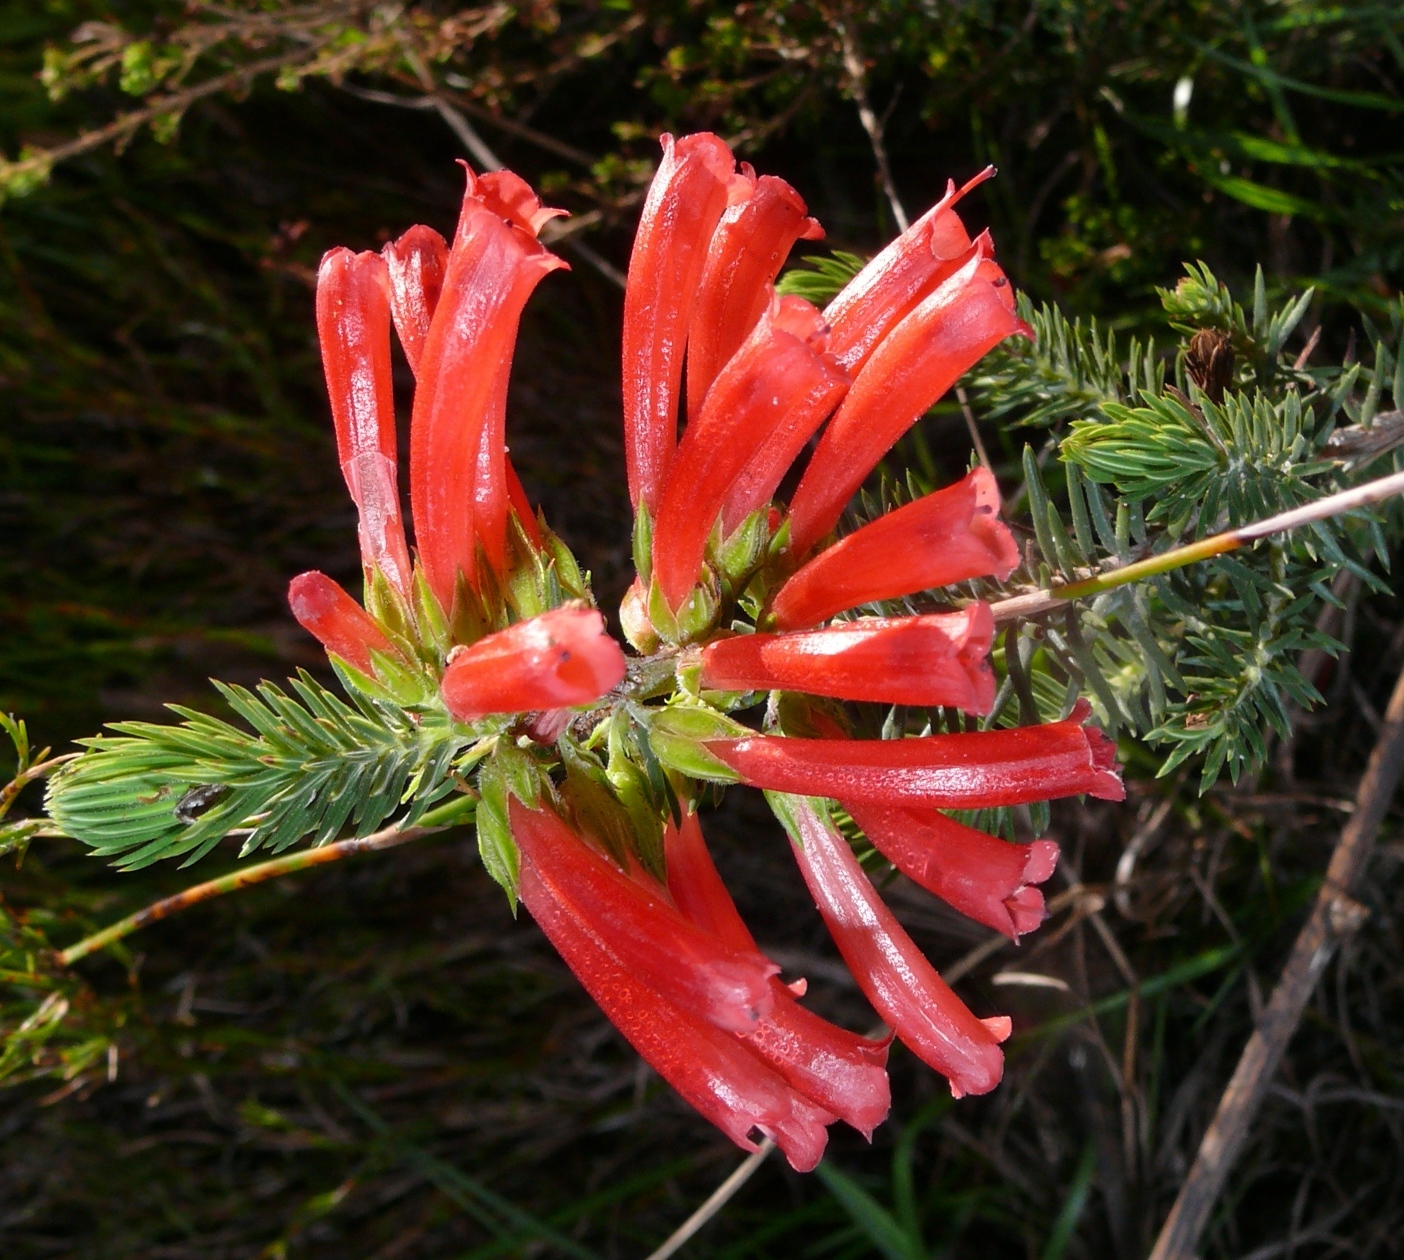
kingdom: Plantae
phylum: Tracheophyta
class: Magnoliopsida
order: Ericales
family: Ericaceae
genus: Erica
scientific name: Erica abietina
